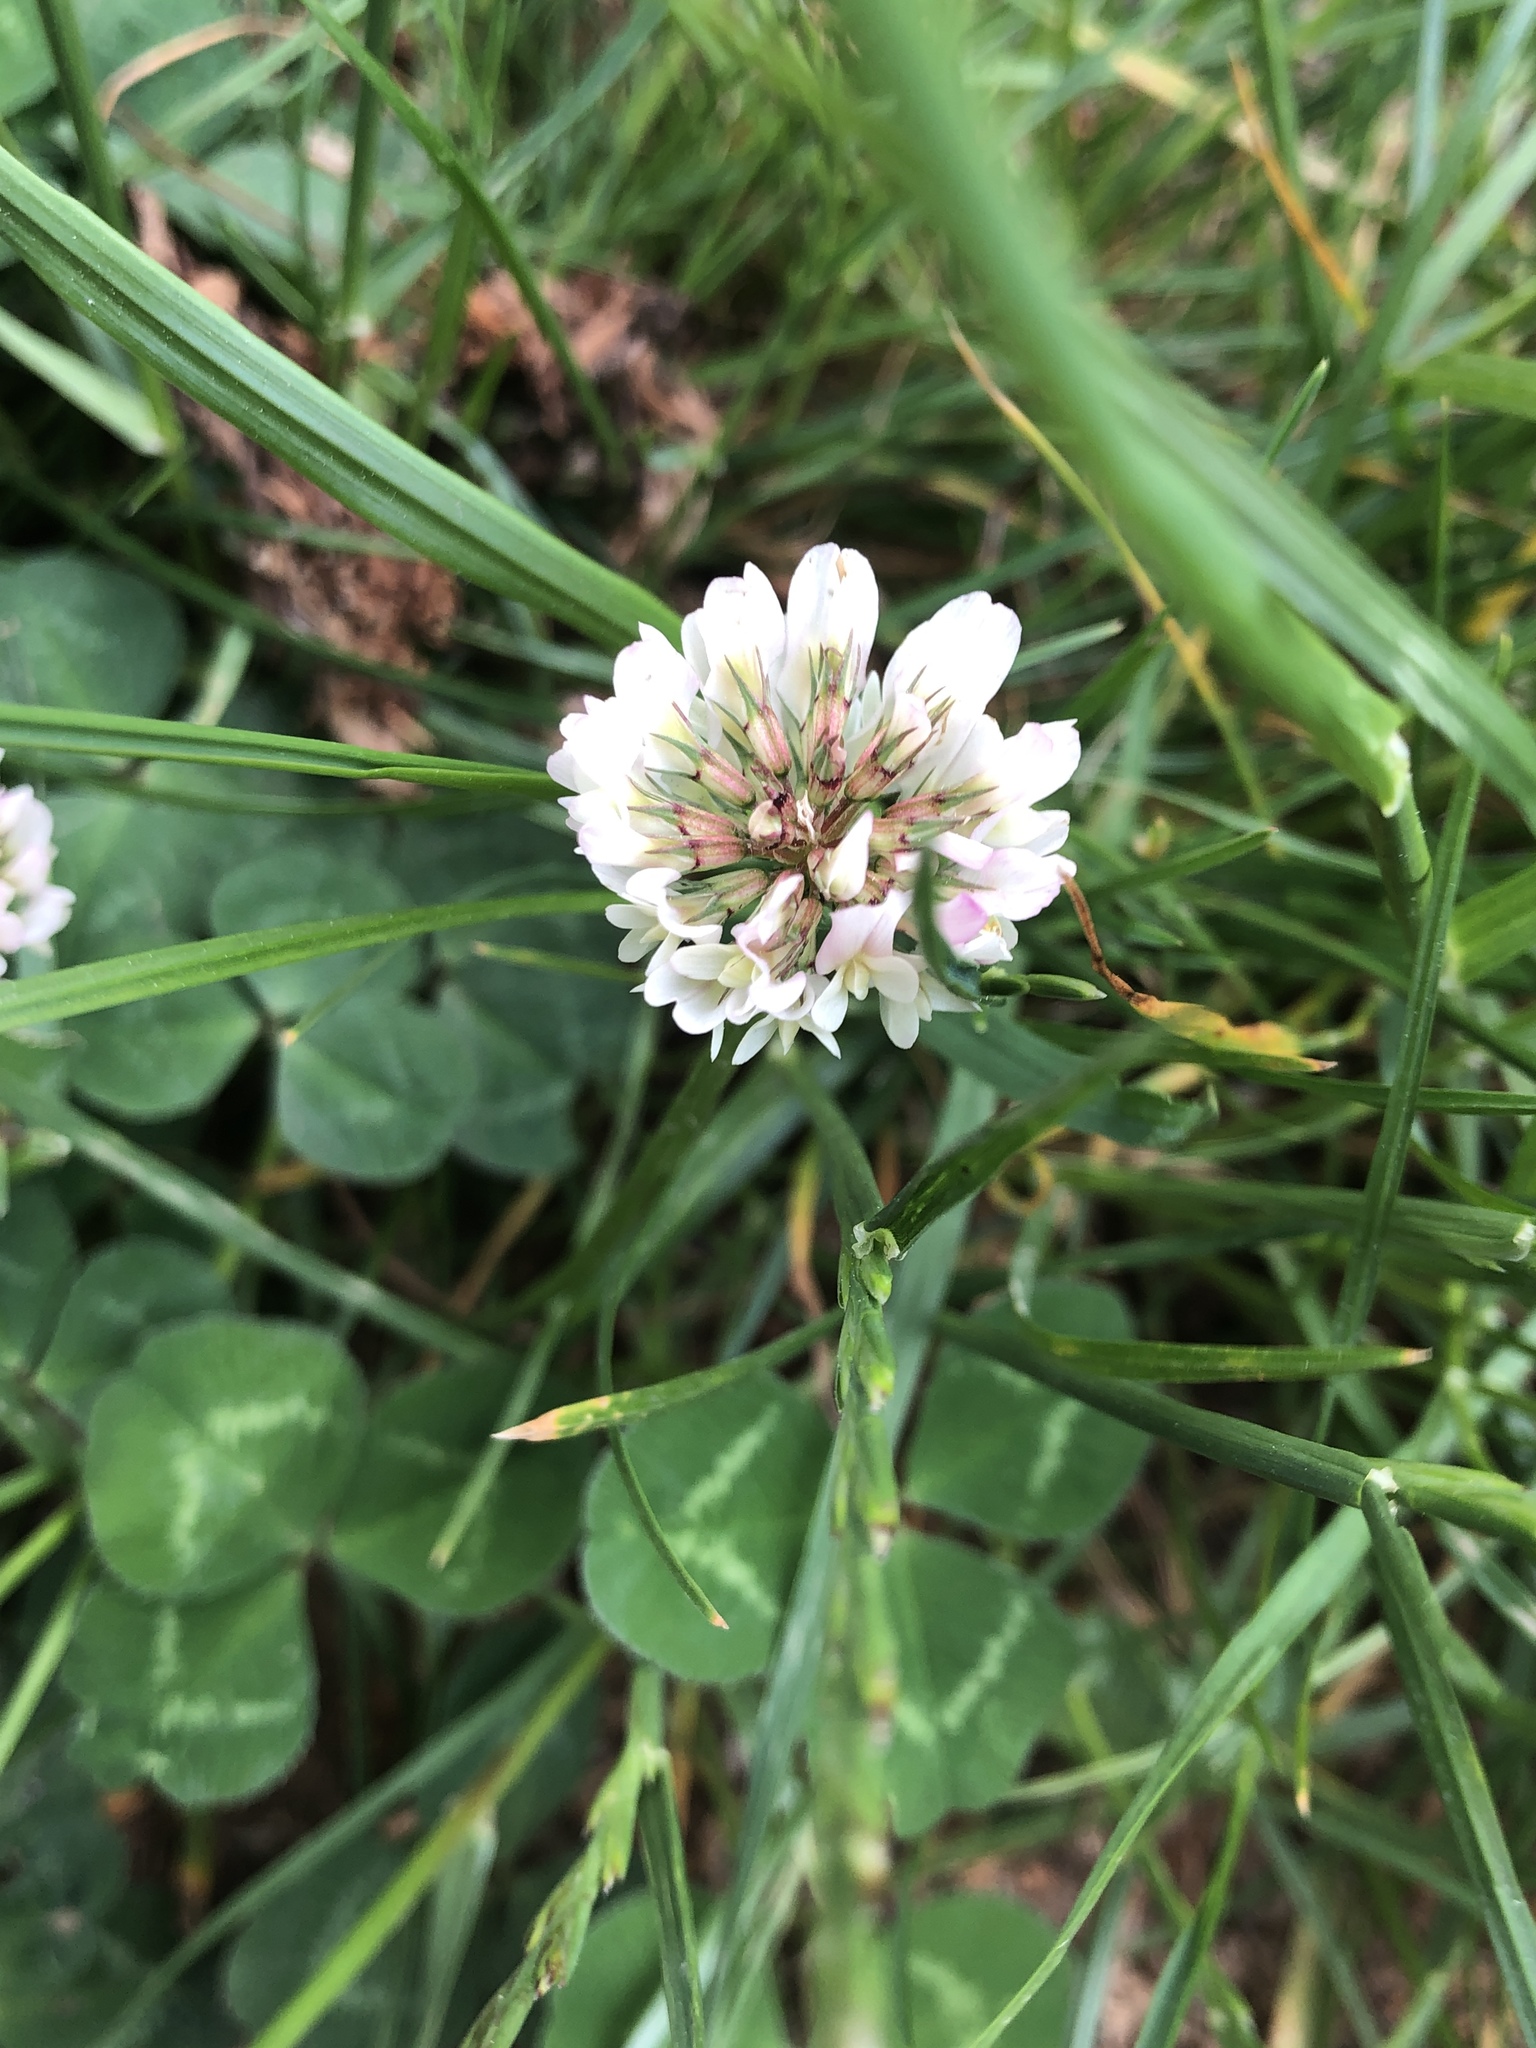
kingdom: Plantae
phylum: Tracheophyta
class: Magnoliopsida
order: Fabales
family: Fabaceae
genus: Trifolium
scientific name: Trifolium repens
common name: White clover
